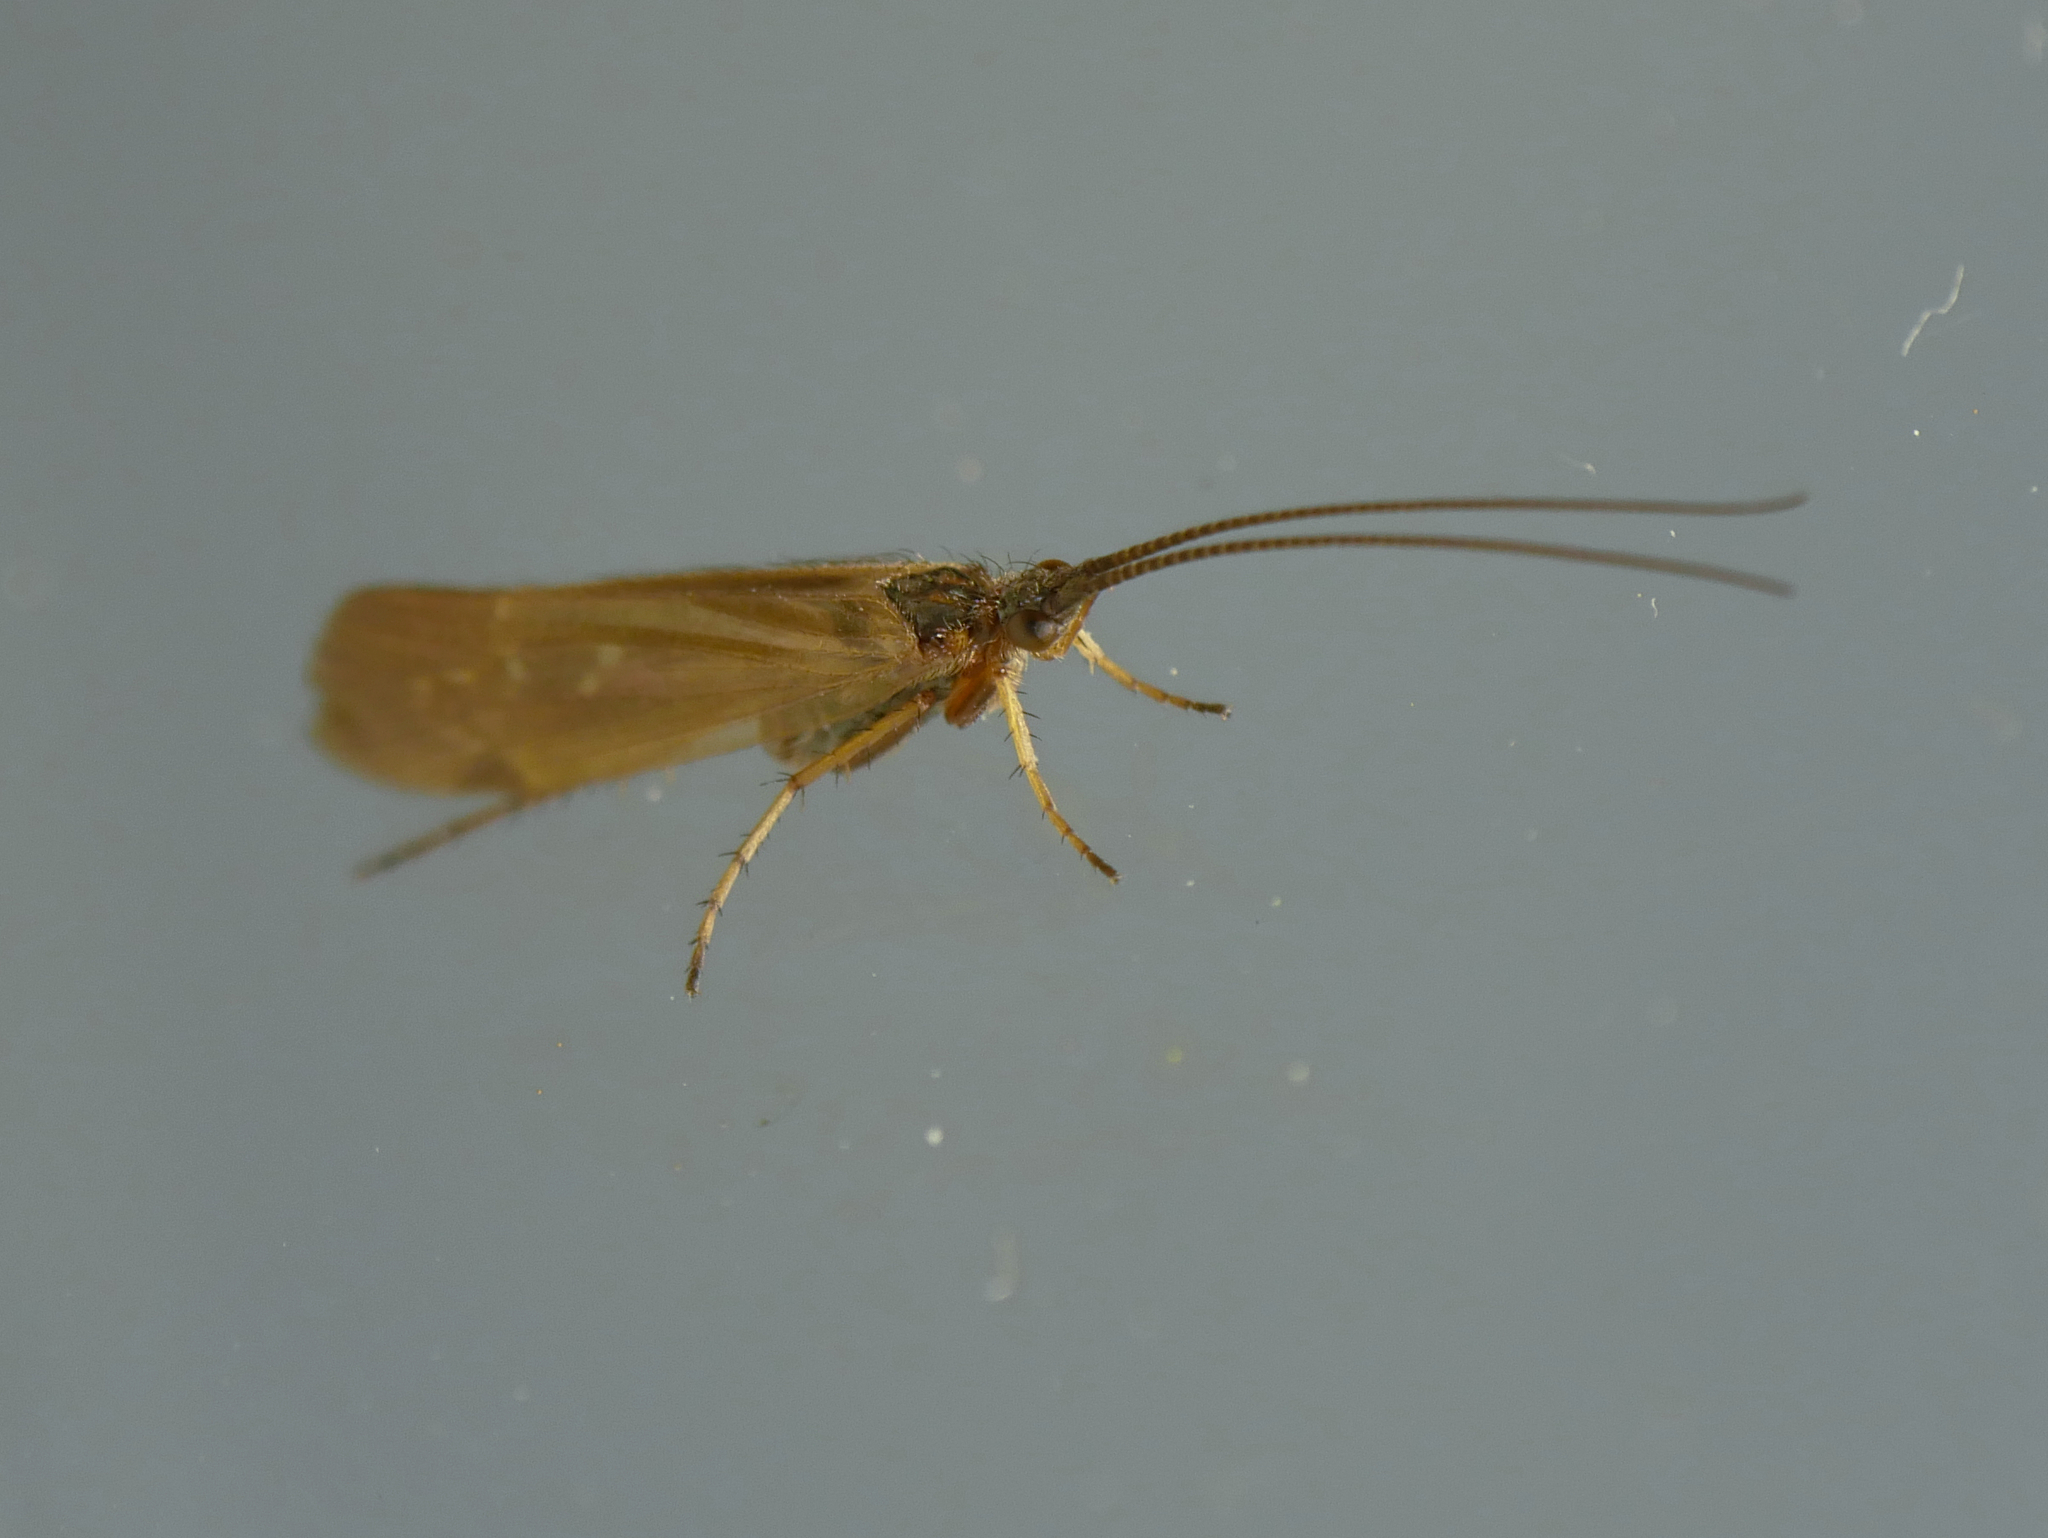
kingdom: Animalia
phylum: Arthropoda
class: Insecta
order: Trichoptera
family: Limnephilidae
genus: Limnephilus
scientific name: Limnephilus auricula
